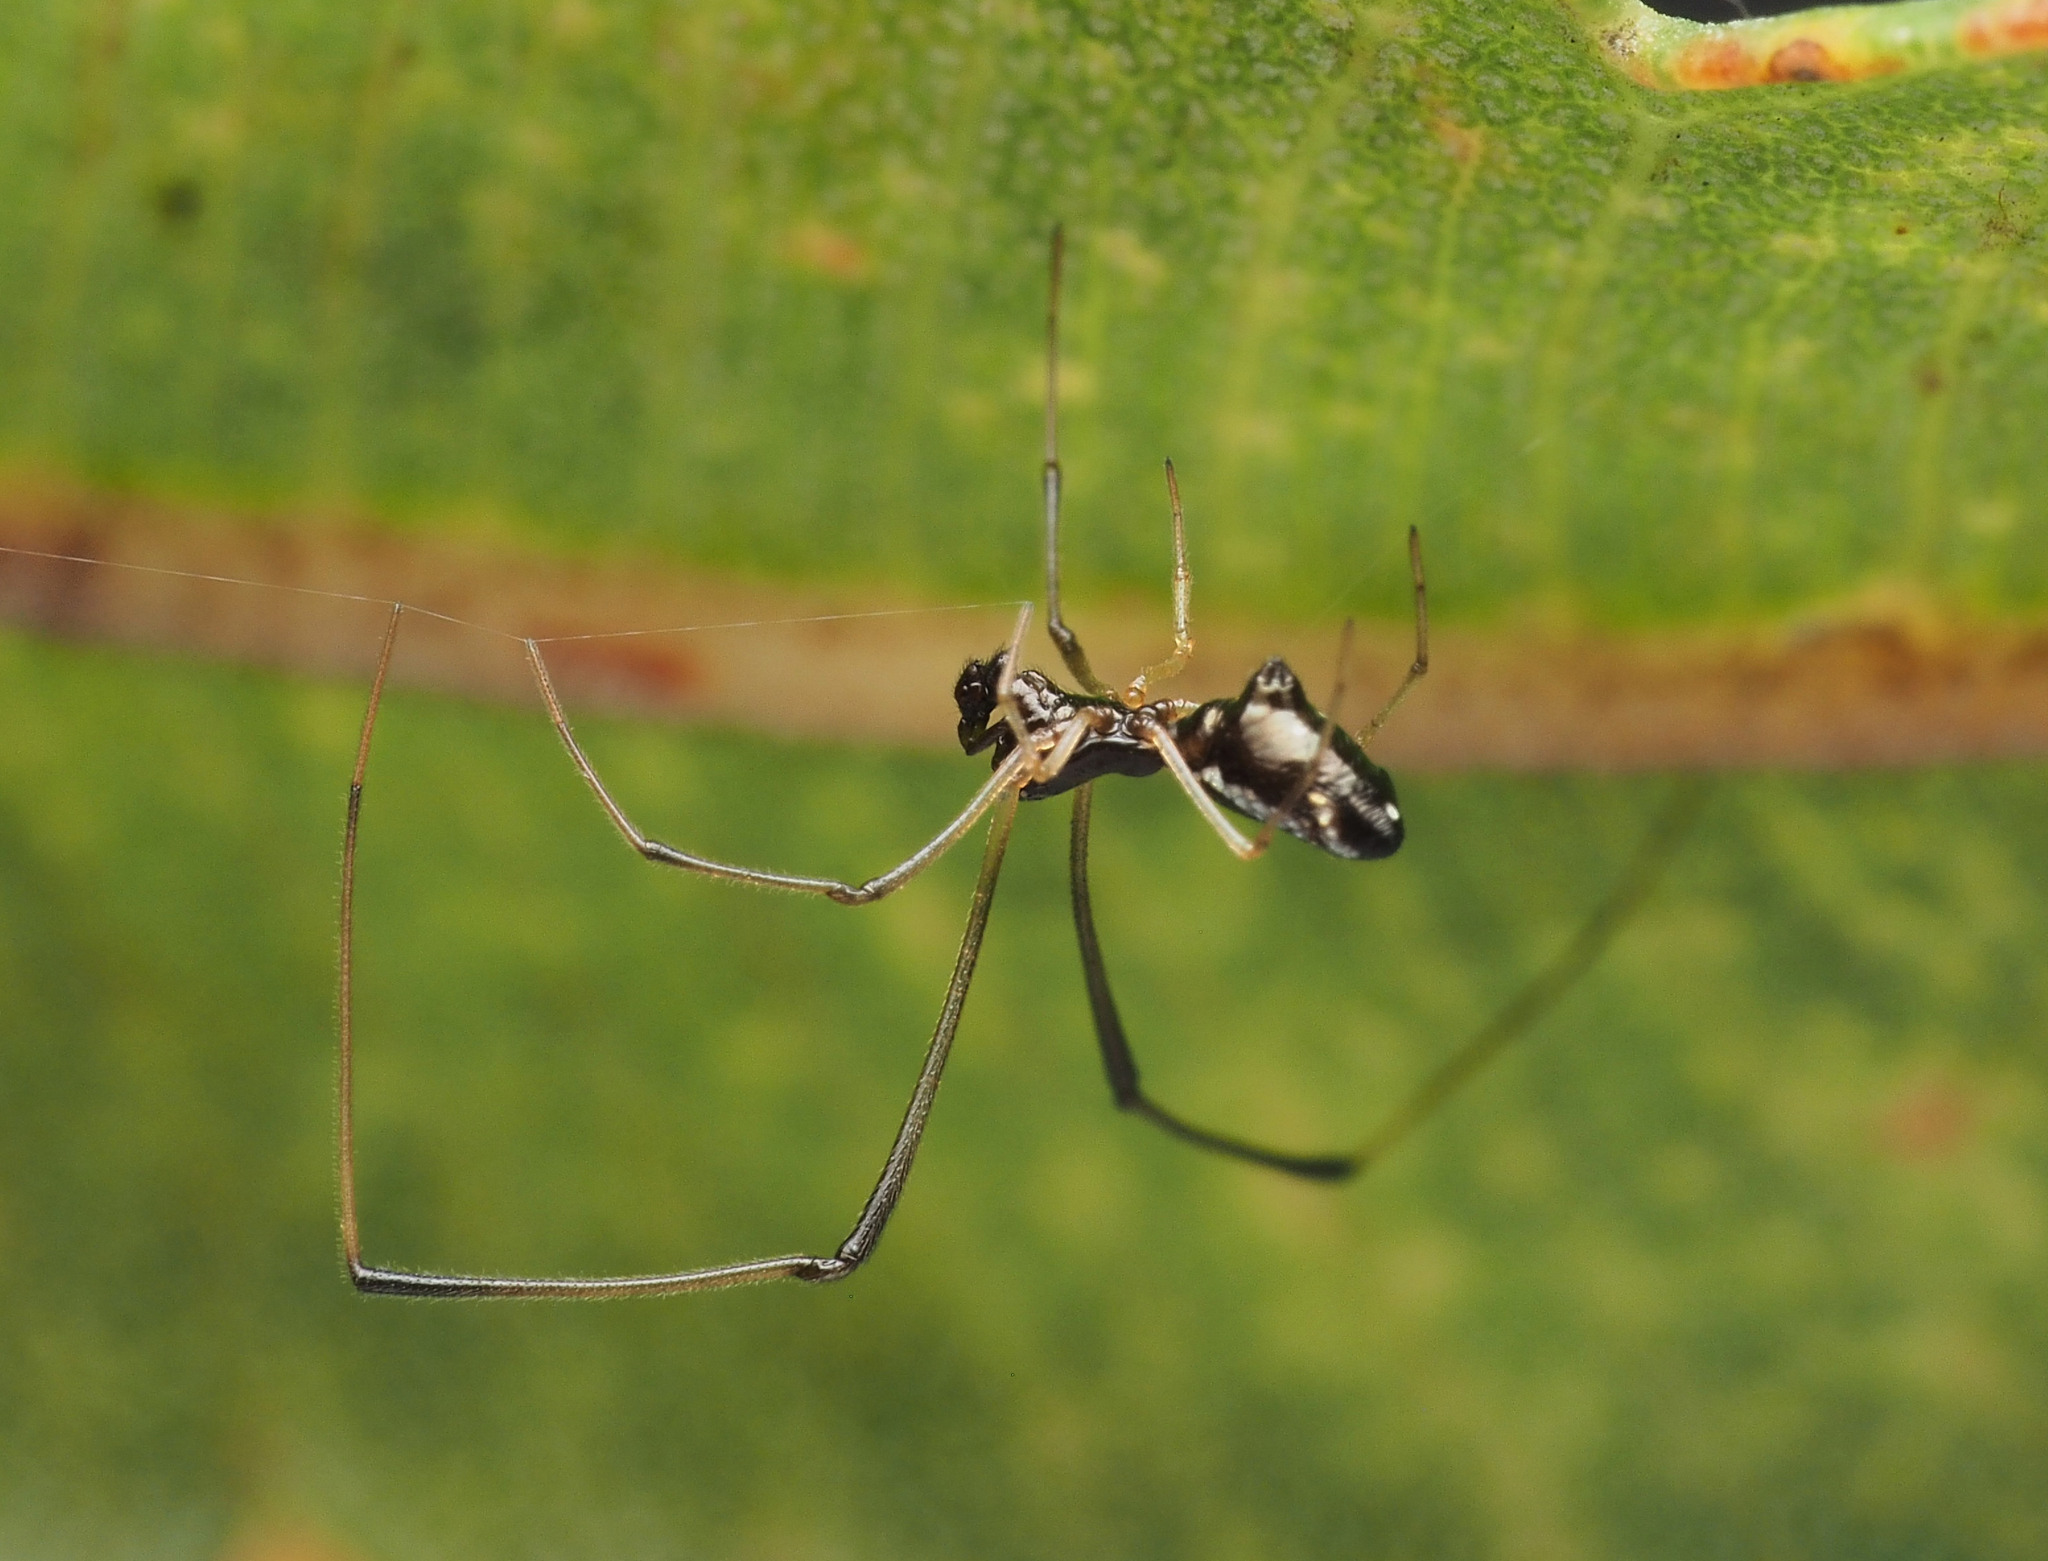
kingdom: Animalia
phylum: Arthropoda
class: Arachnida
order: Araneae
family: Theridiidae
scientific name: Theridiidae
